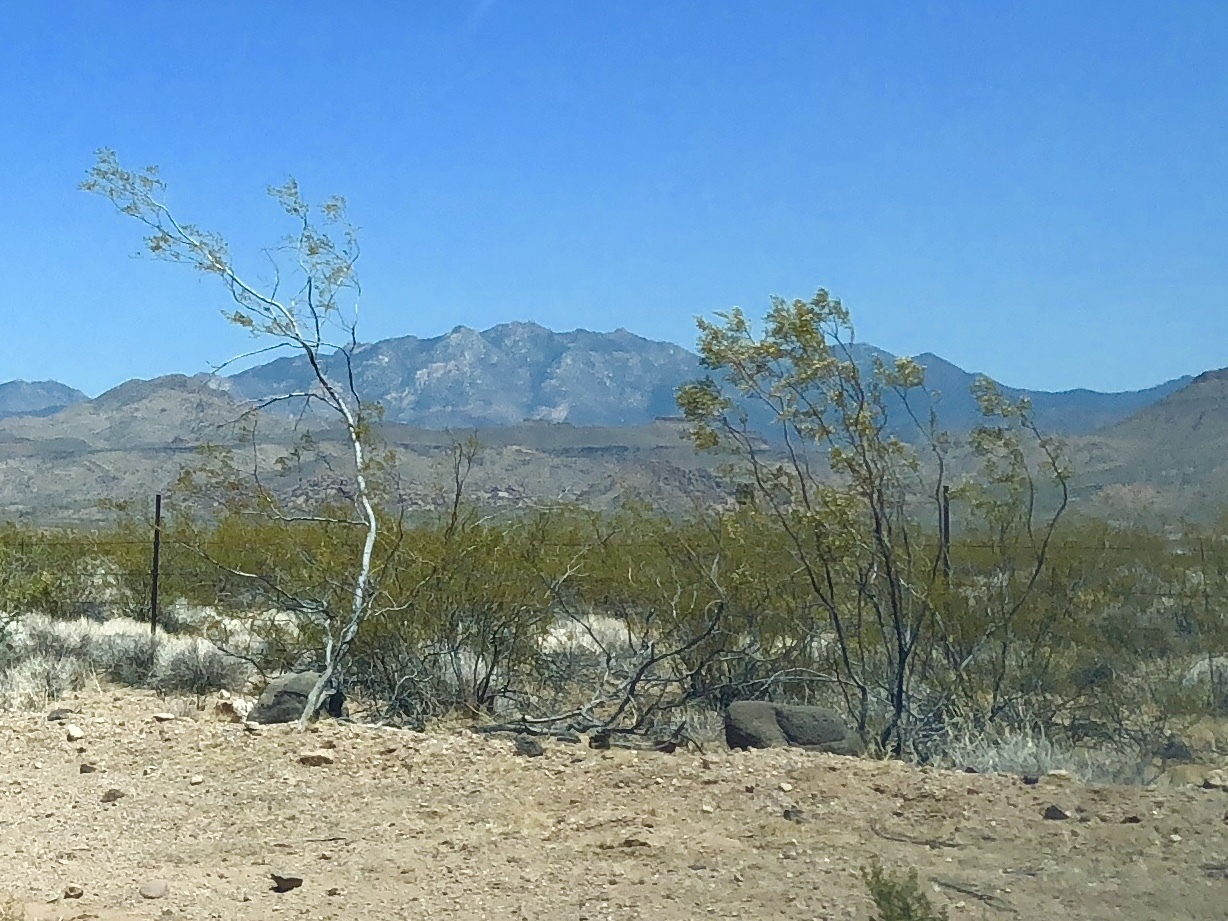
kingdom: Plantae
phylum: Tracheophyta
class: Magnoliopsida
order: Zygophyllales
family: Zygophyllaceae
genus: Larrea
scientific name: Larrea tridentata
